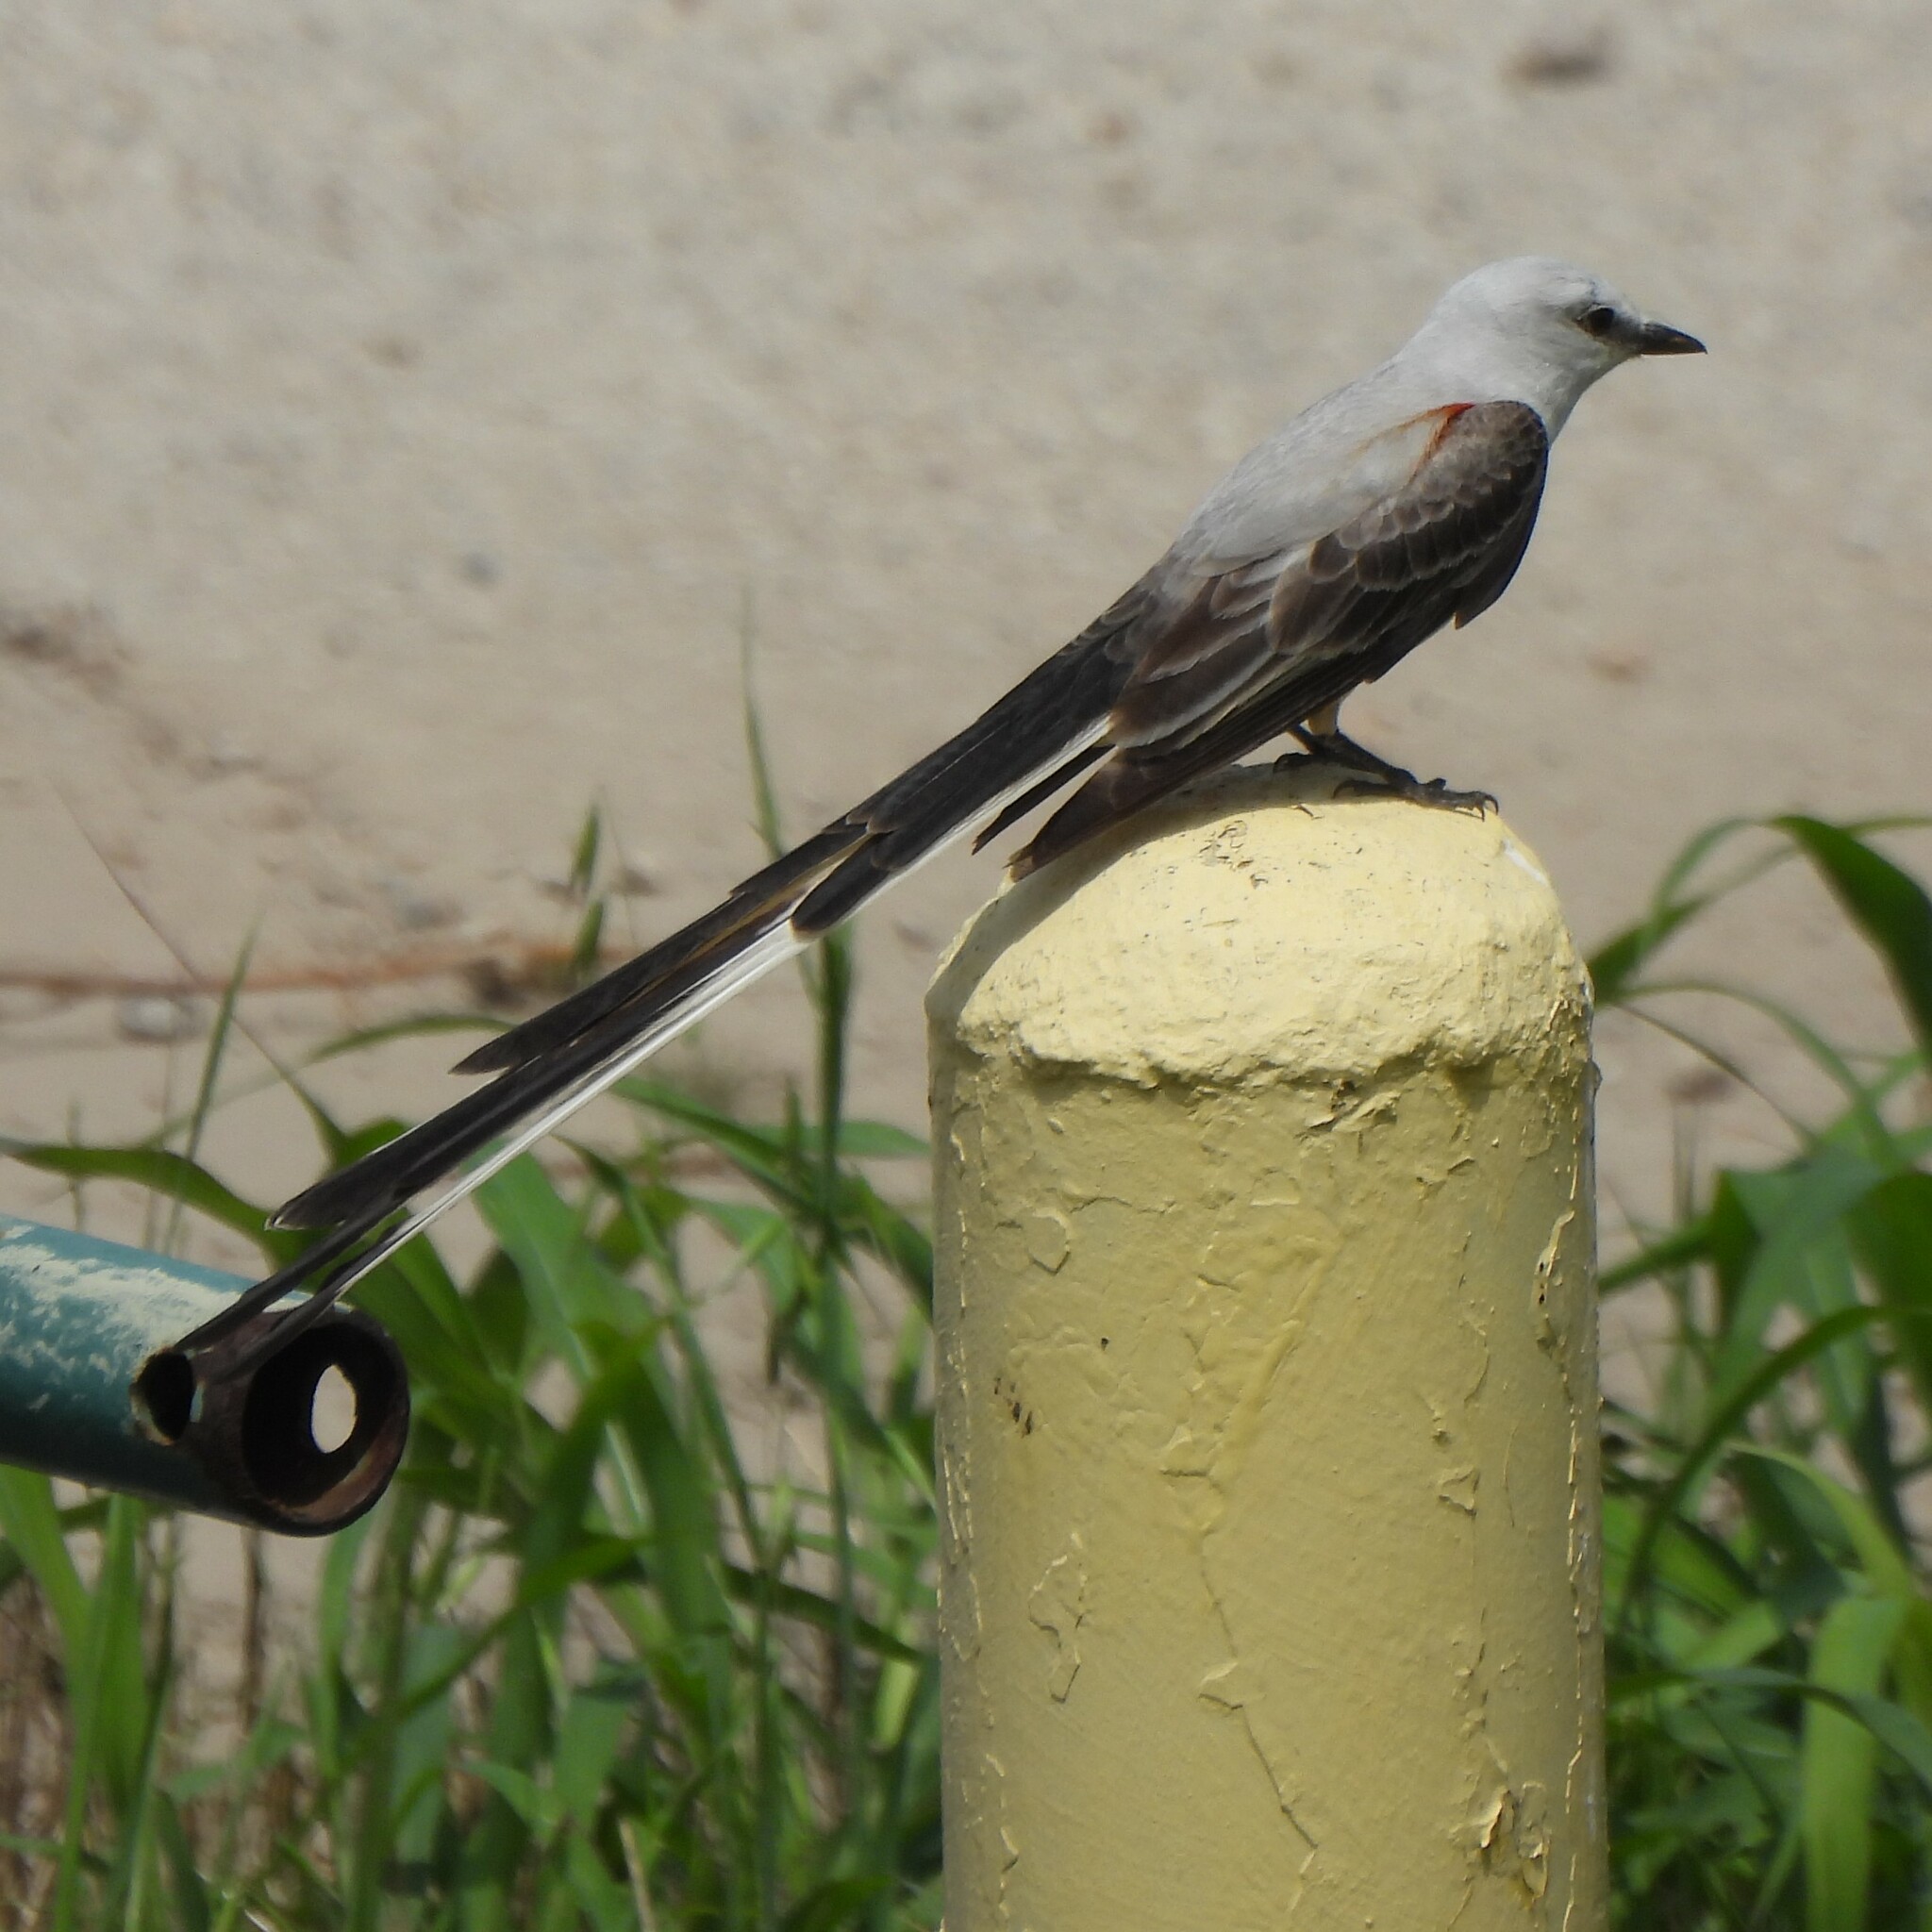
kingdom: Animalia
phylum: Chordata
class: Aves
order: Passeriformes
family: Tyrannidae
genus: Tyrannus
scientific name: Tyrannus forficatus
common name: Scissor-tailed flycatcher
